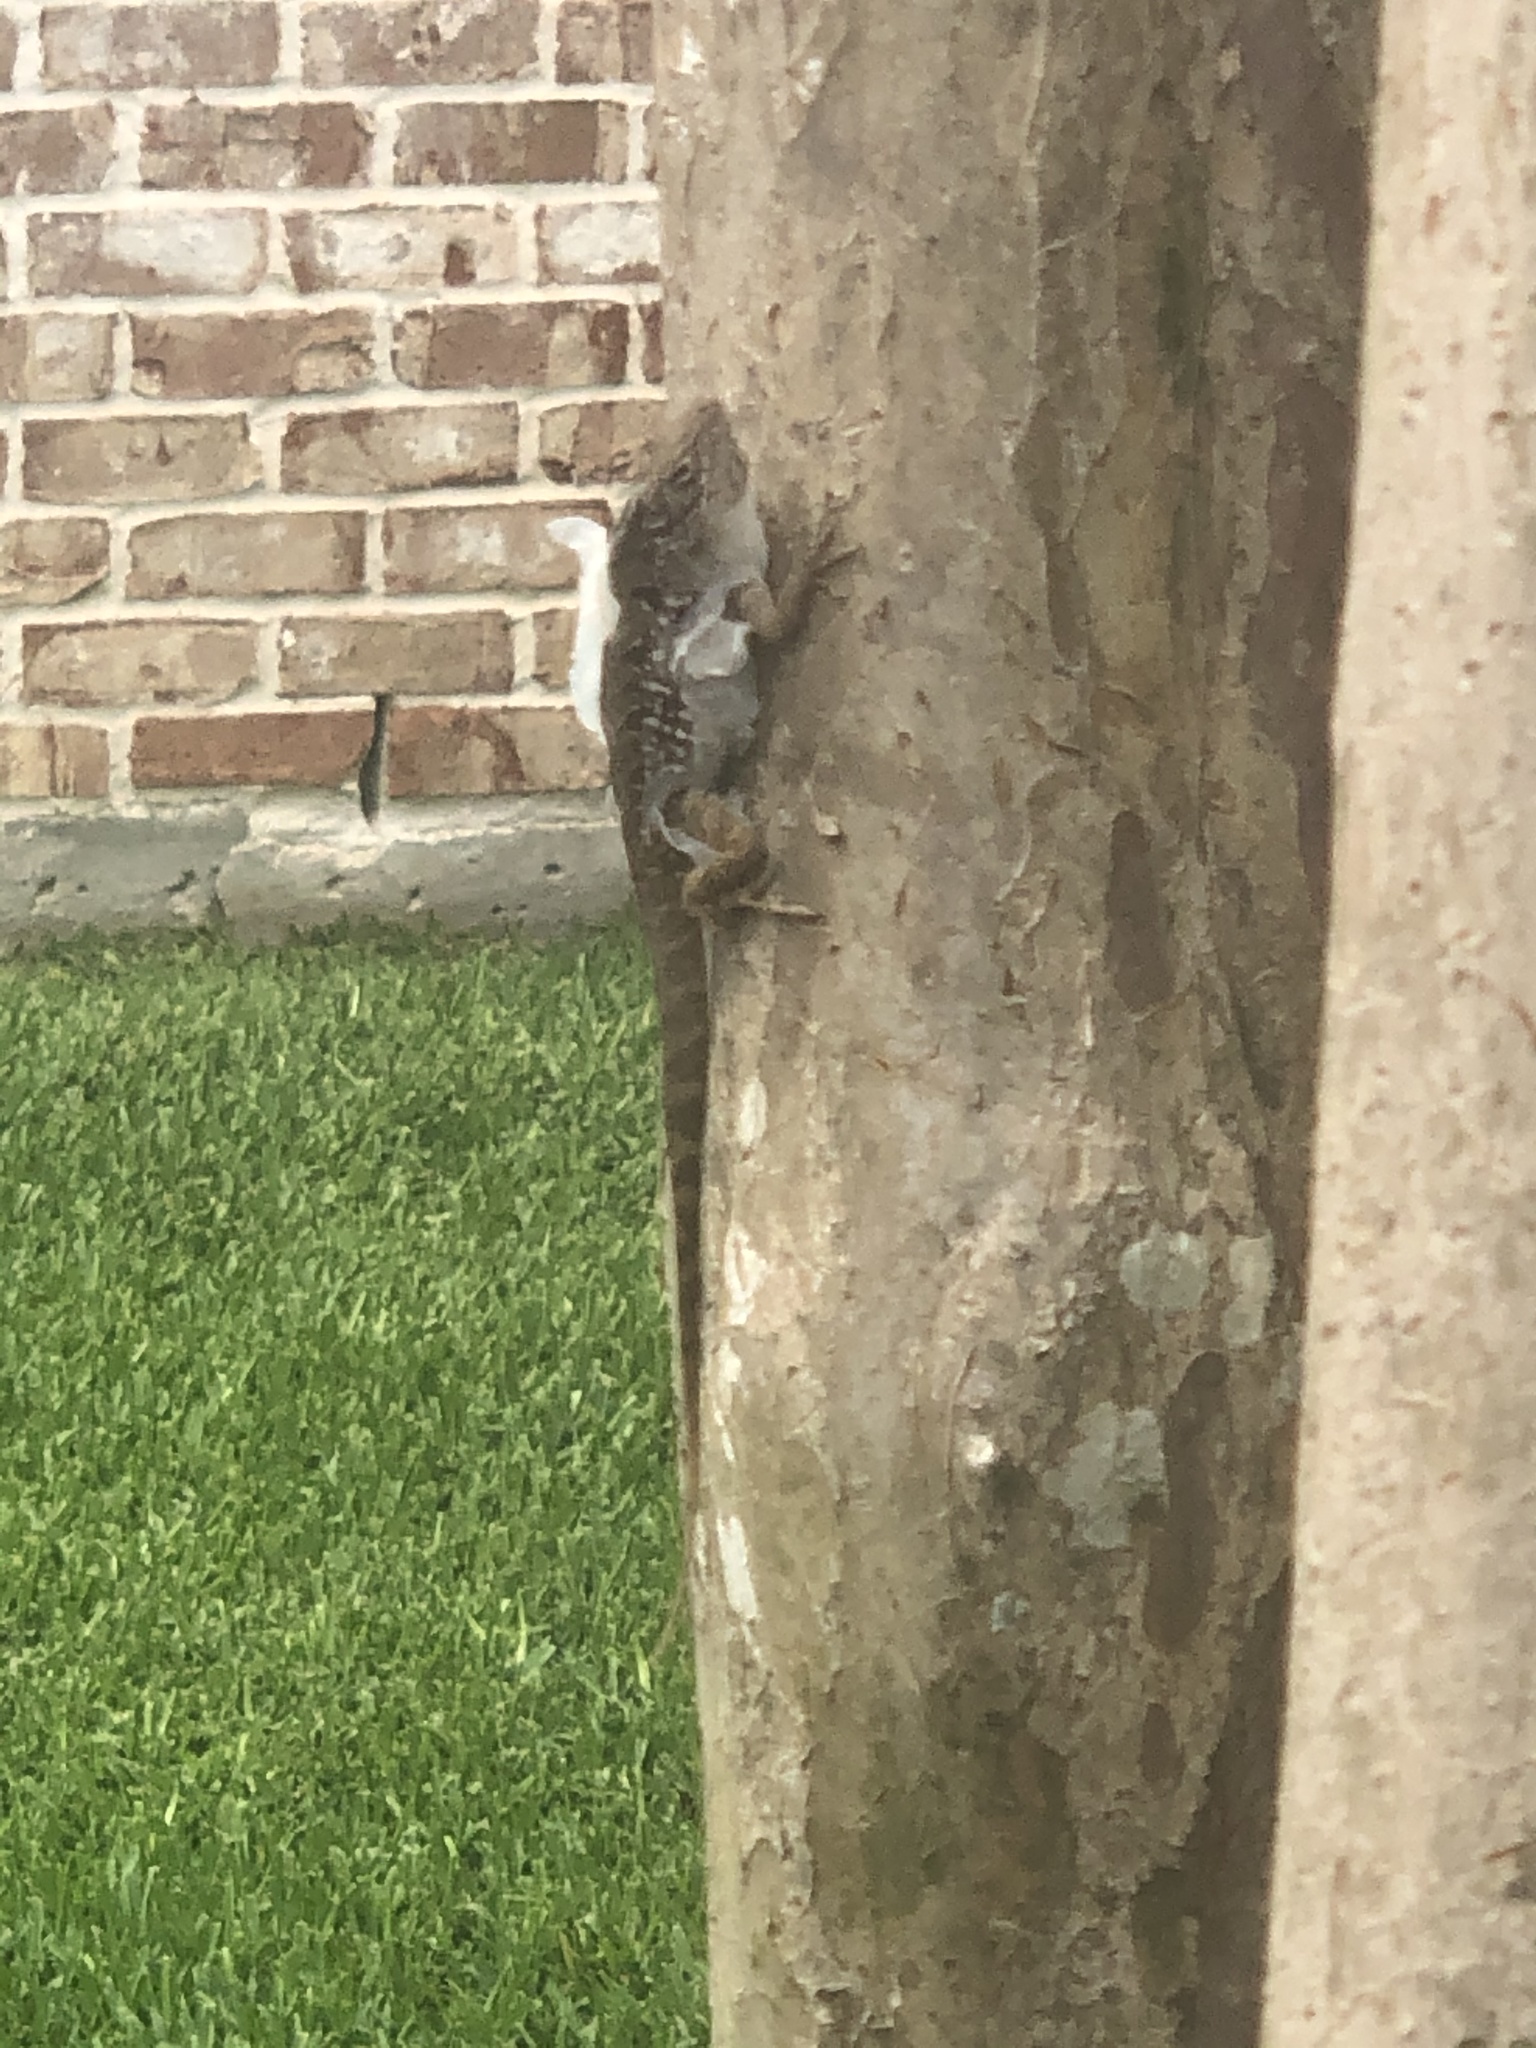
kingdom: Animalia
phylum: Chordata
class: Squamata
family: Dactyloidae
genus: Anolis
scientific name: Anolis sagrei
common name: Brown anole
